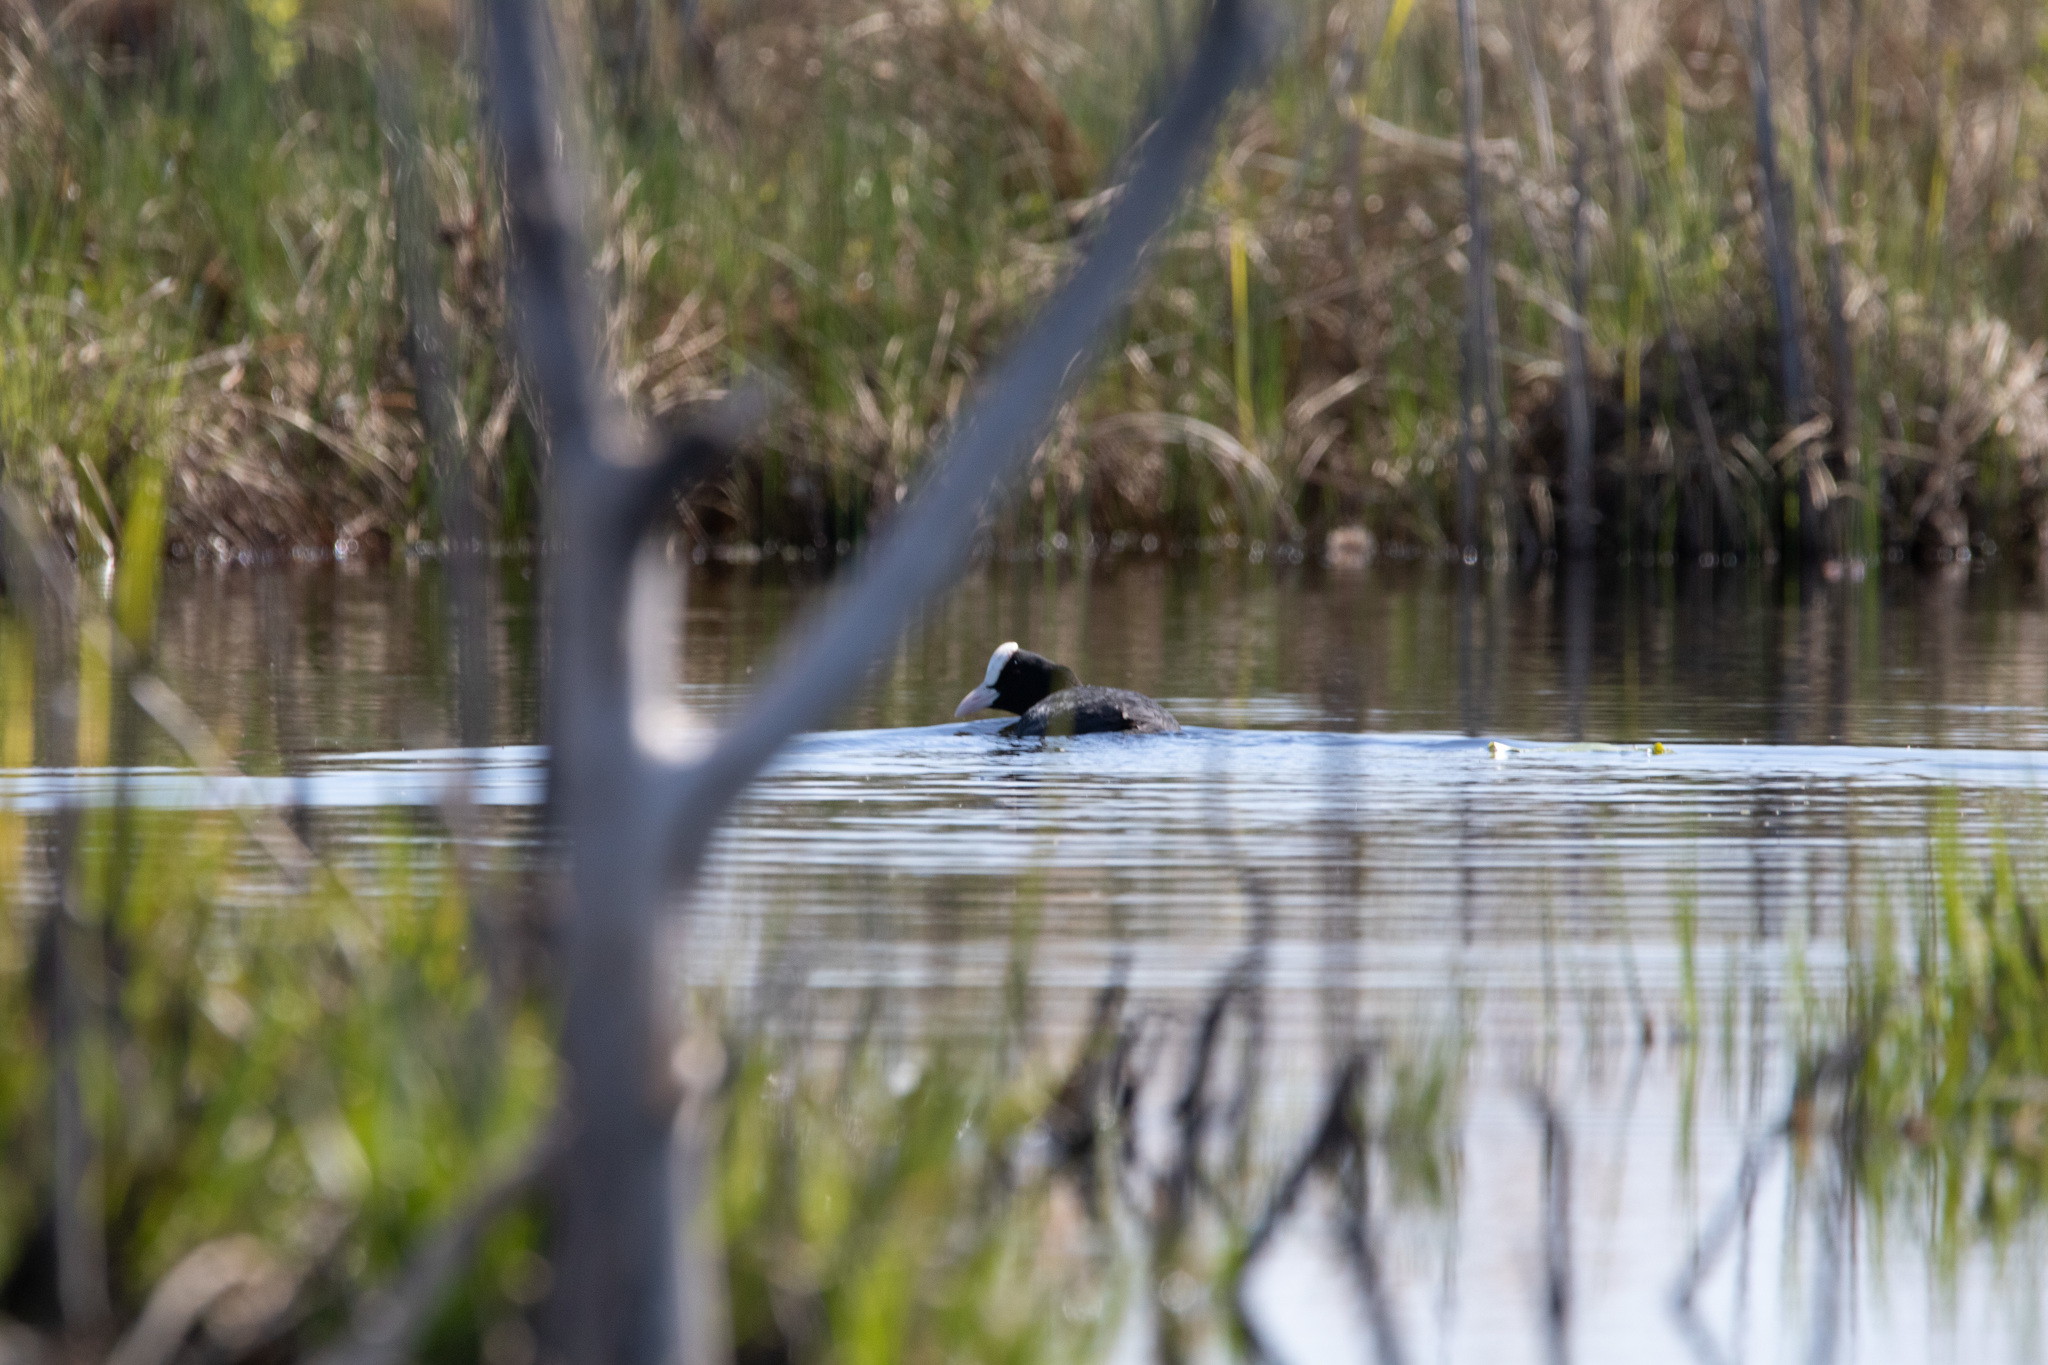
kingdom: Animalia
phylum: Chordata
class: Aves
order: Gruiformes
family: Rallidae
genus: Fulica
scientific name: Fulica atra
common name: Eurasian coot
